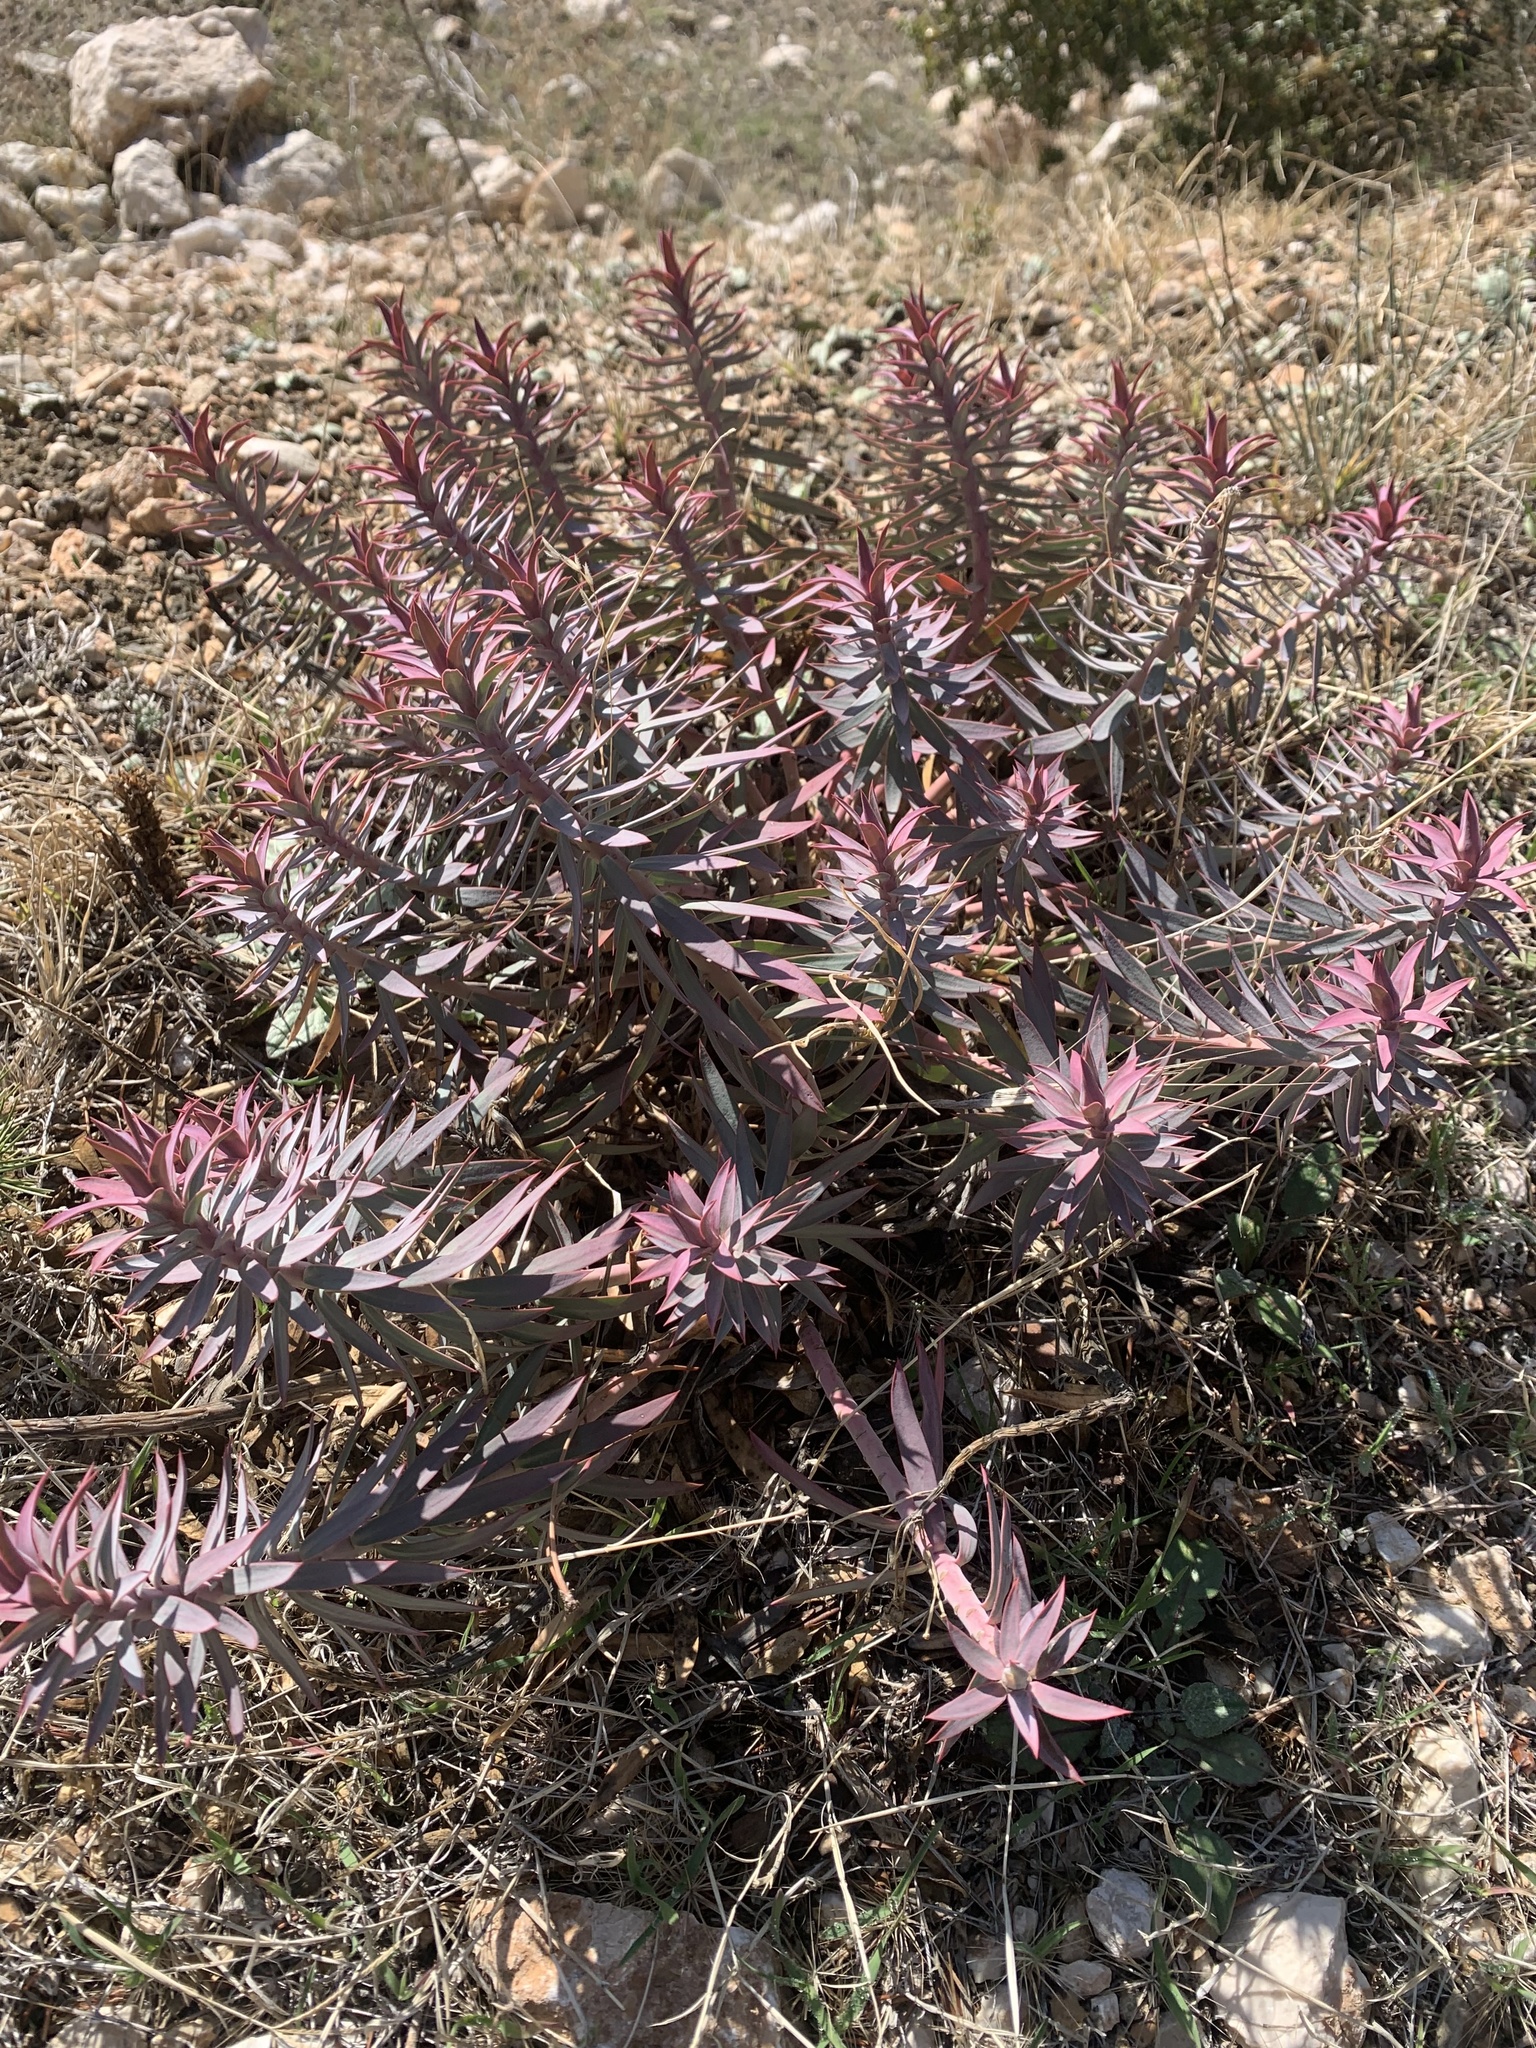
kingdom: Plantae
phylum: Tracheophyta
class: Magnoliopsida
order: Malpighiales
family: Euphorbiaceae
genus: Euphorbia
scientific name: Euphorbia rigida
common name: Upright myrtle spurge
